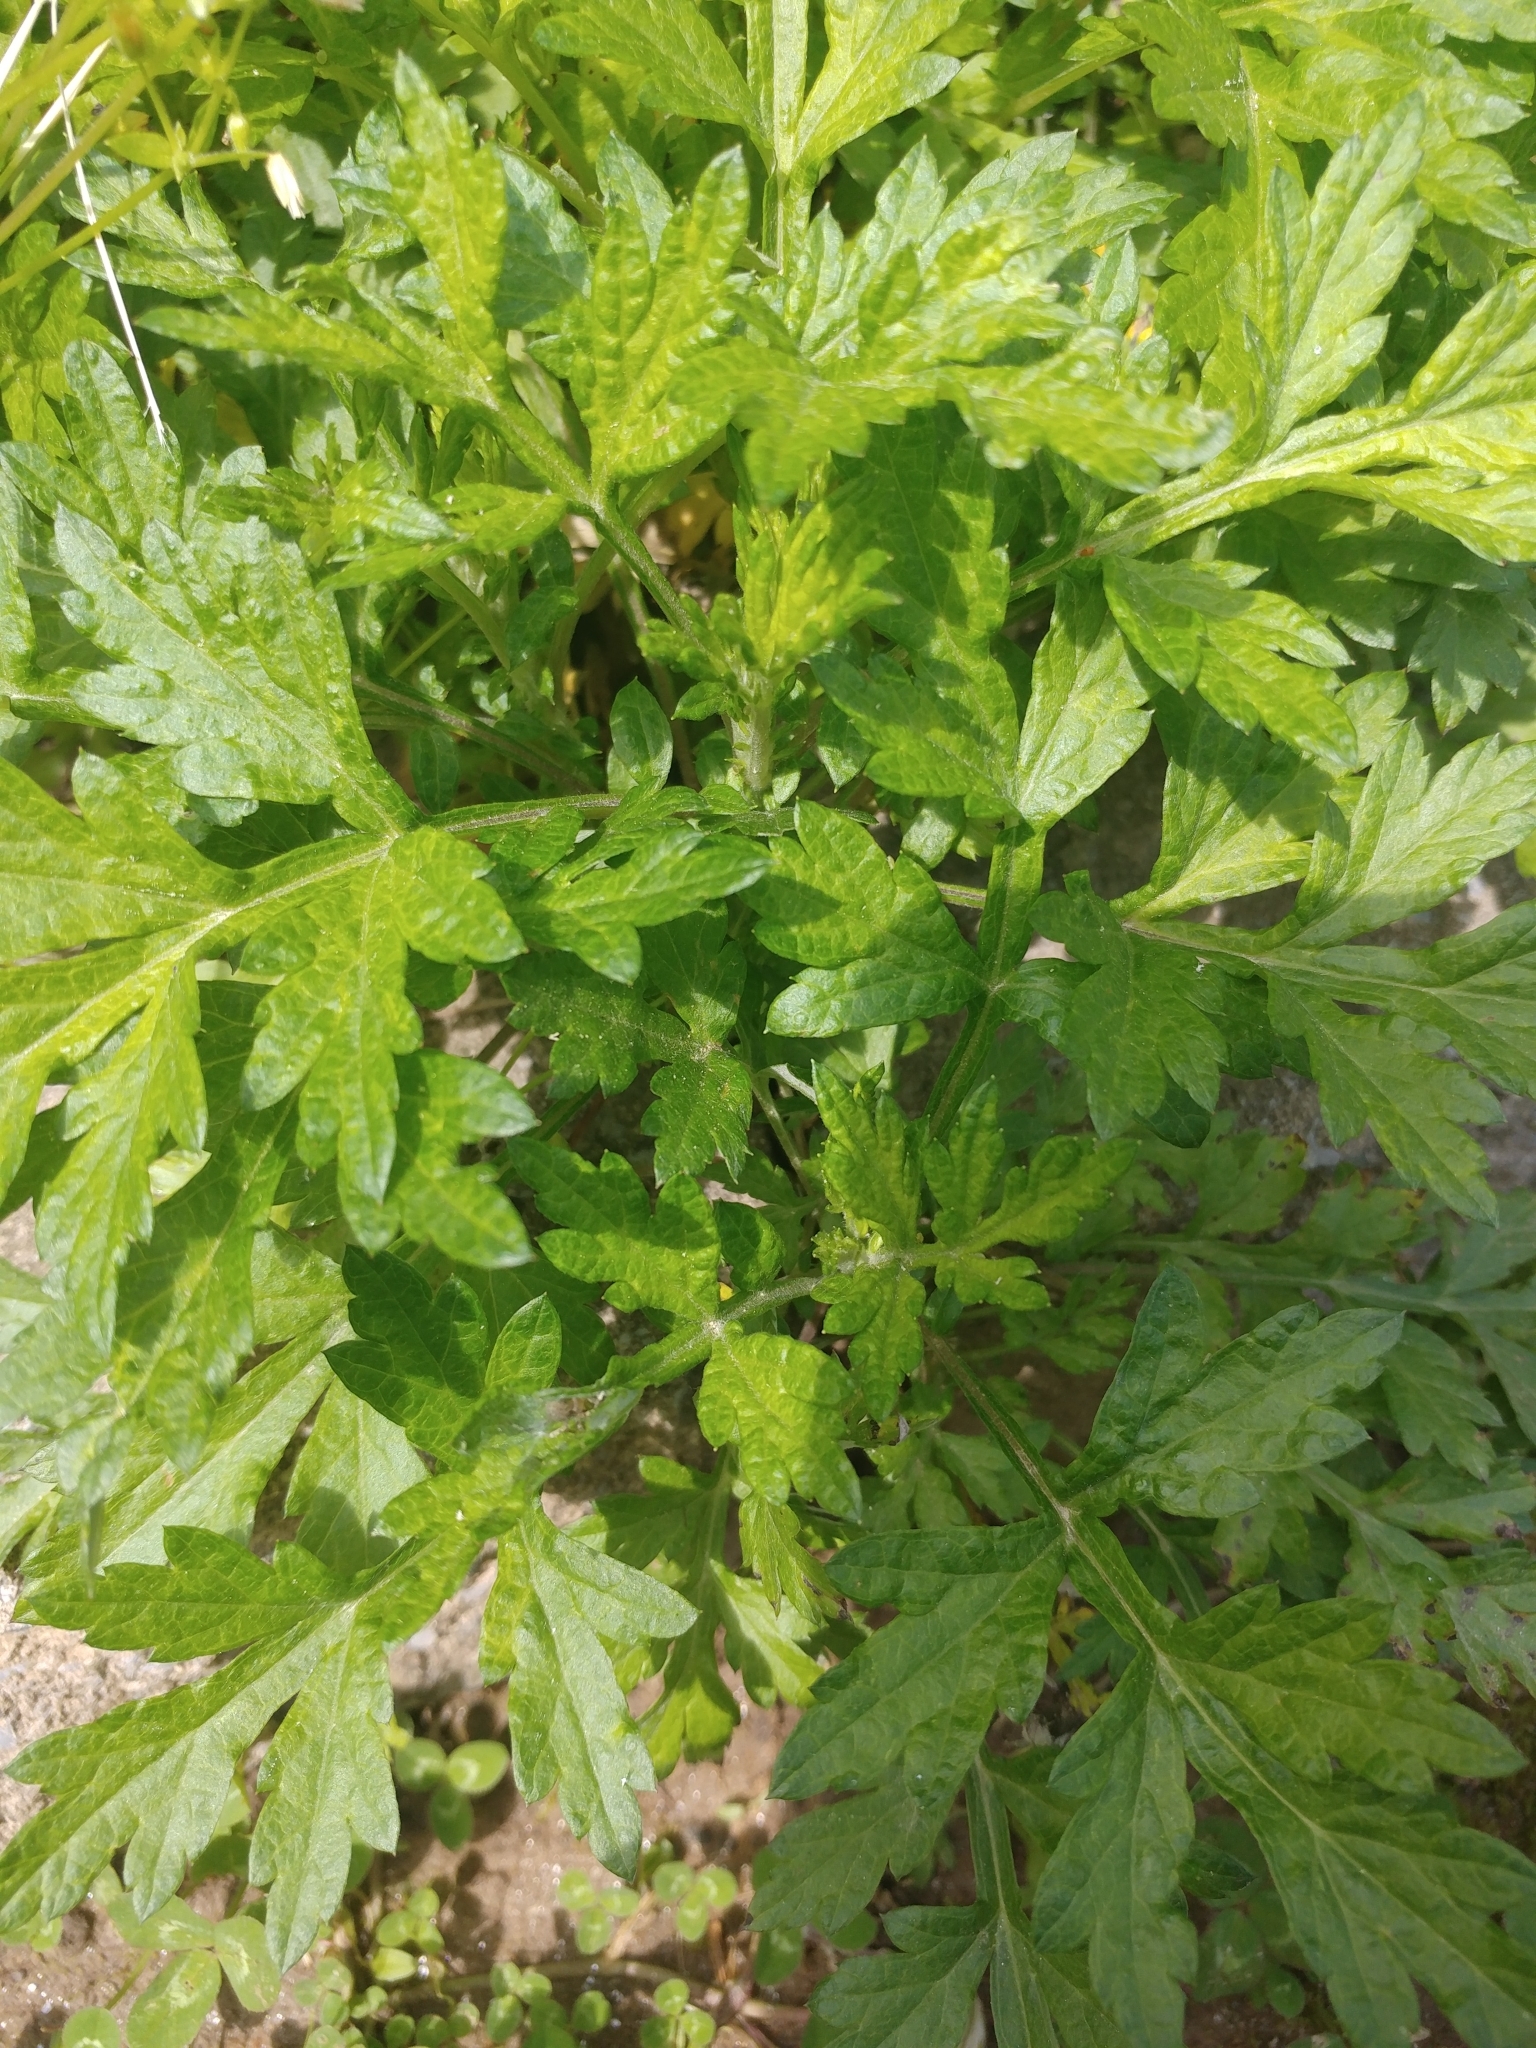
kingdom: Plantae
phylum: Tracheophyta
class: Magnoliopsida
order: Asterales
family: Asteraceae
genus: Artemisia
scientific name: Artemisia vulgaris
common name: Mugwort
